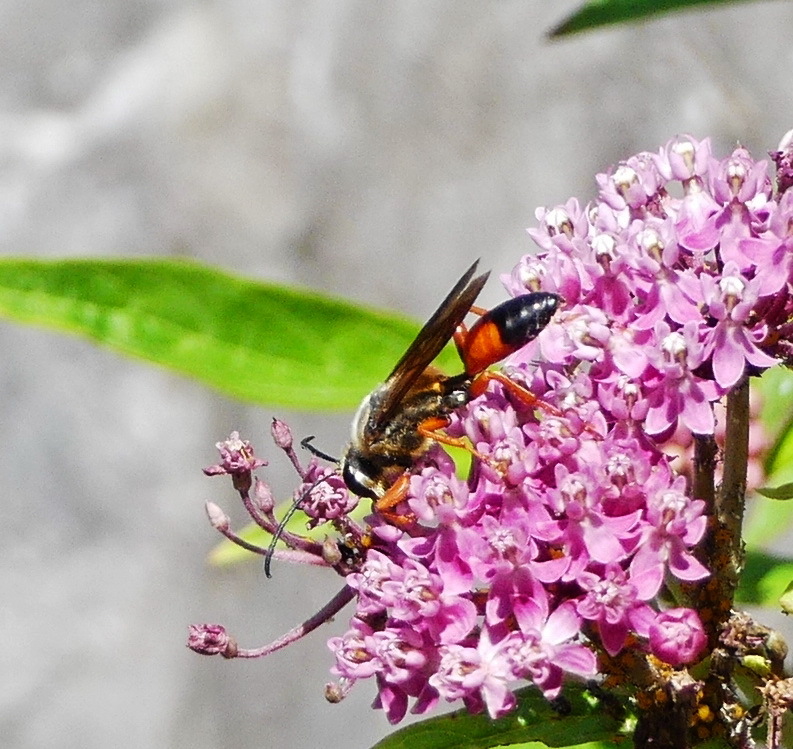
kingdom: Animalia
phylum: Arthropoda
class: Insecta
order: Hymenoptera
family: Sphecidae
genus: Sphex
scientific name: Sphex ichneumoneus
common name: Great golden digger wasp
